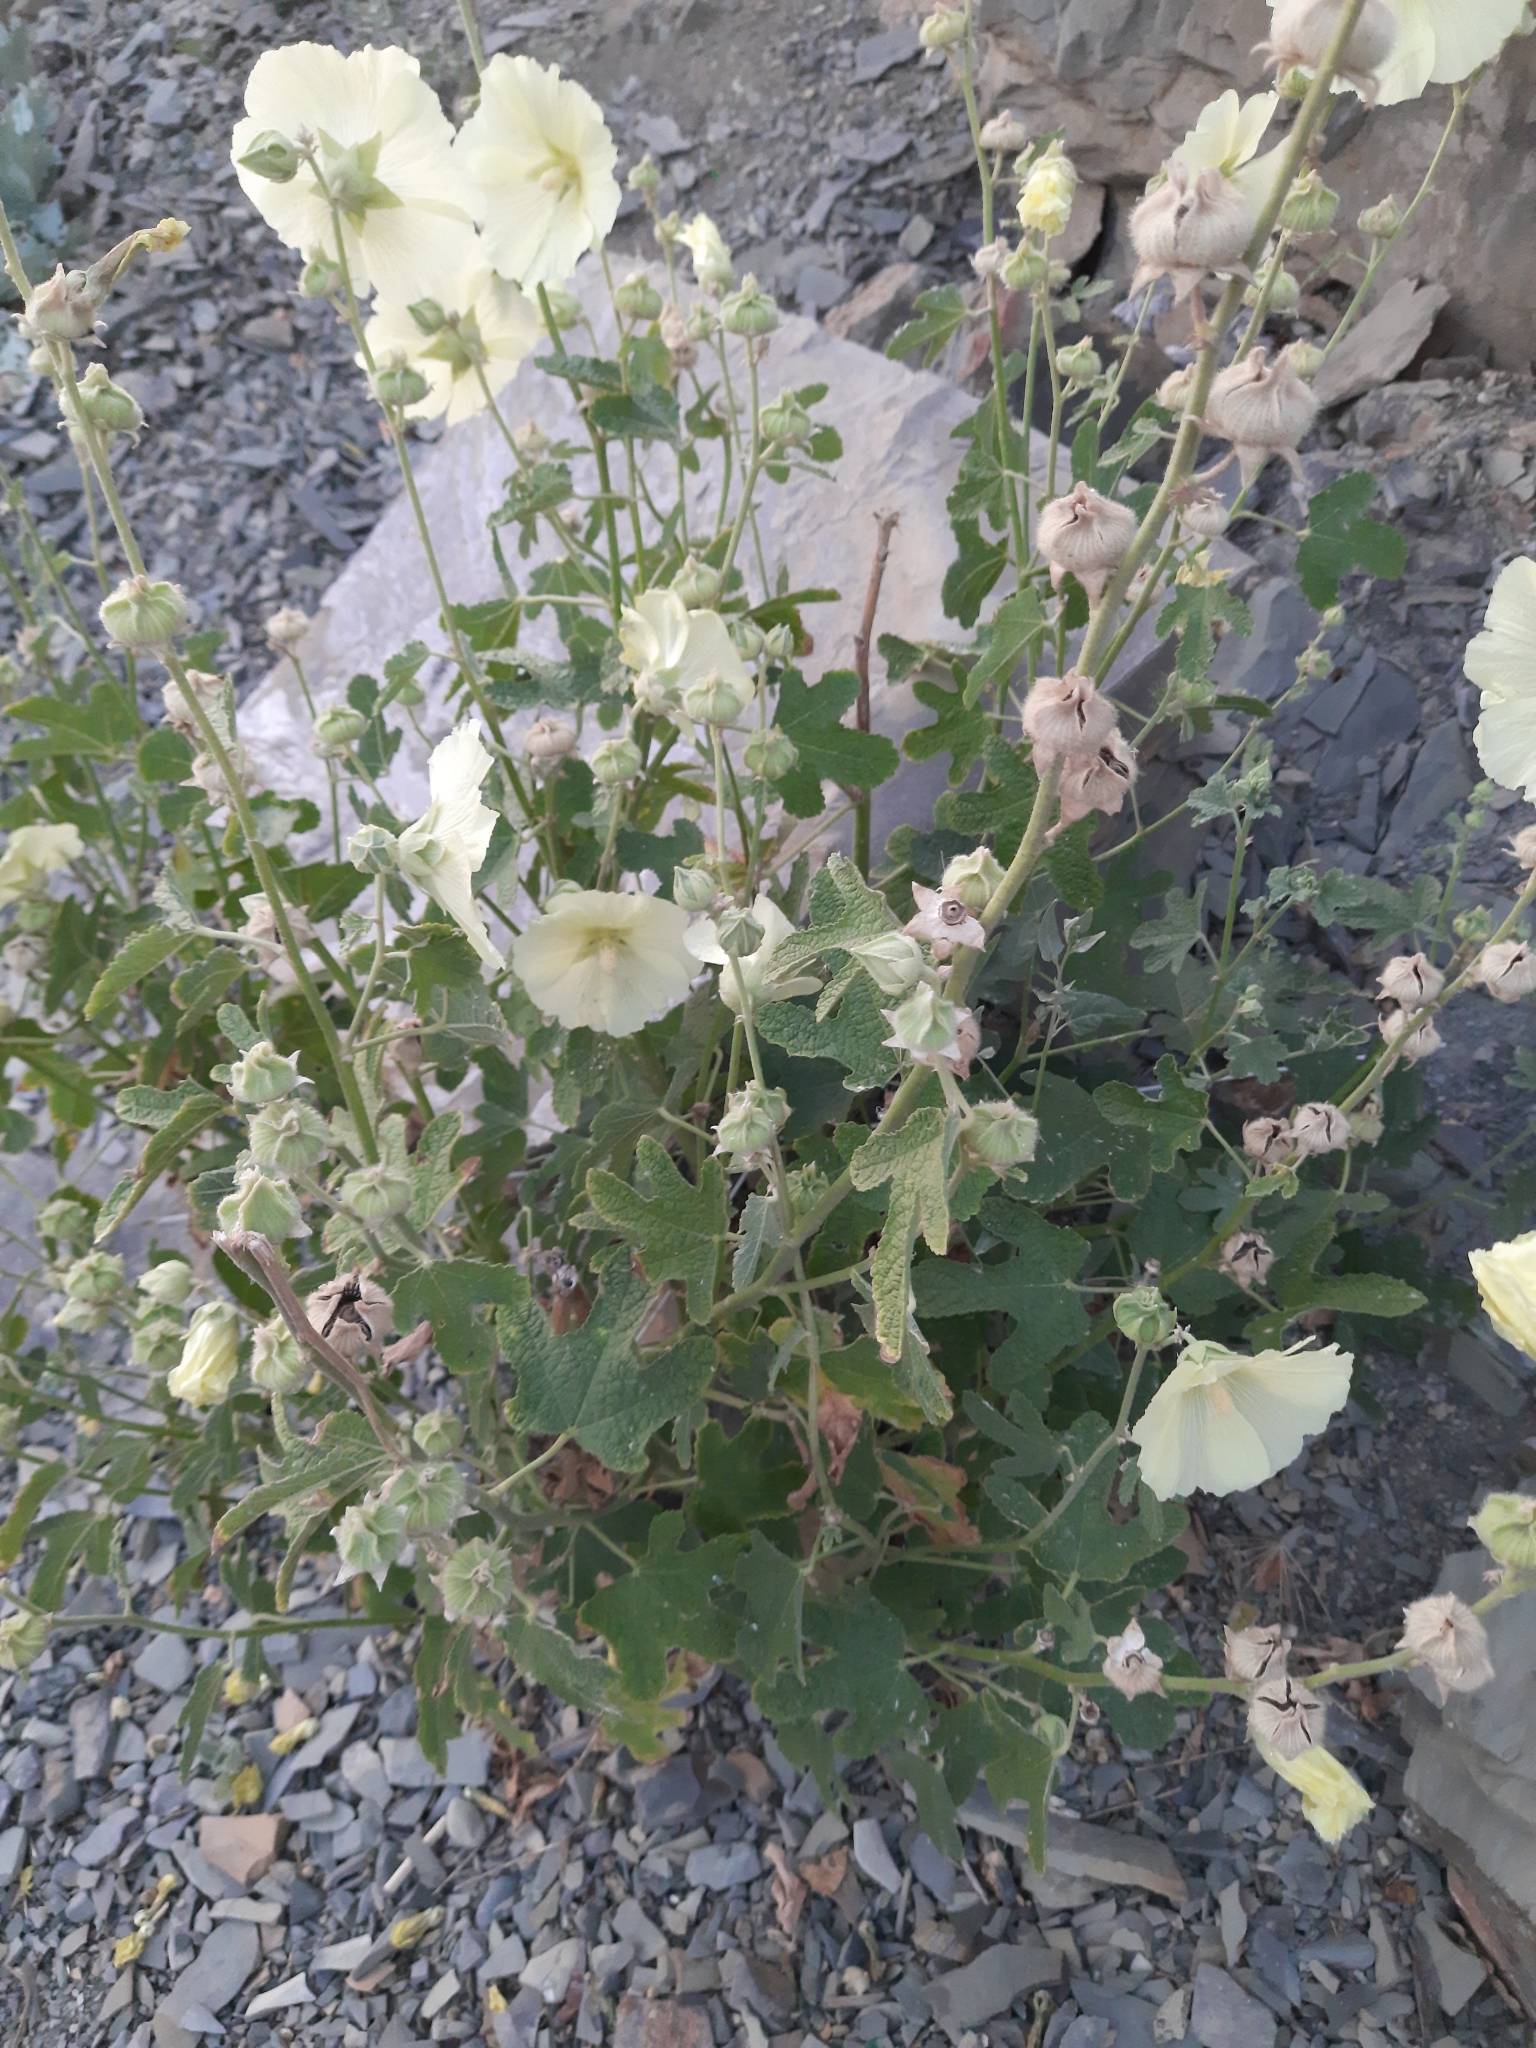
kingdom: Plantae
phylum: Tracheophyta
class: Magnoliopsida
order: Malvales
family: Malvaceae
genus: Alcea
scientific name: Alcea rugosa
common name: Russian hollyhock
